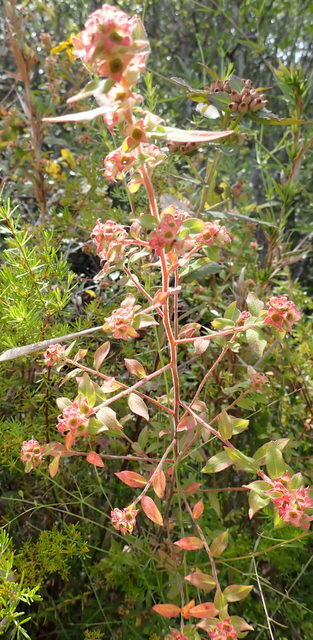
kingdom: Plantae
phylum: Tracheophyta
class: Magnoliopsida
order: Myrtales
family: Onagraceae
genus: Ludwigia
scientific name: Ludwigia pilosa
